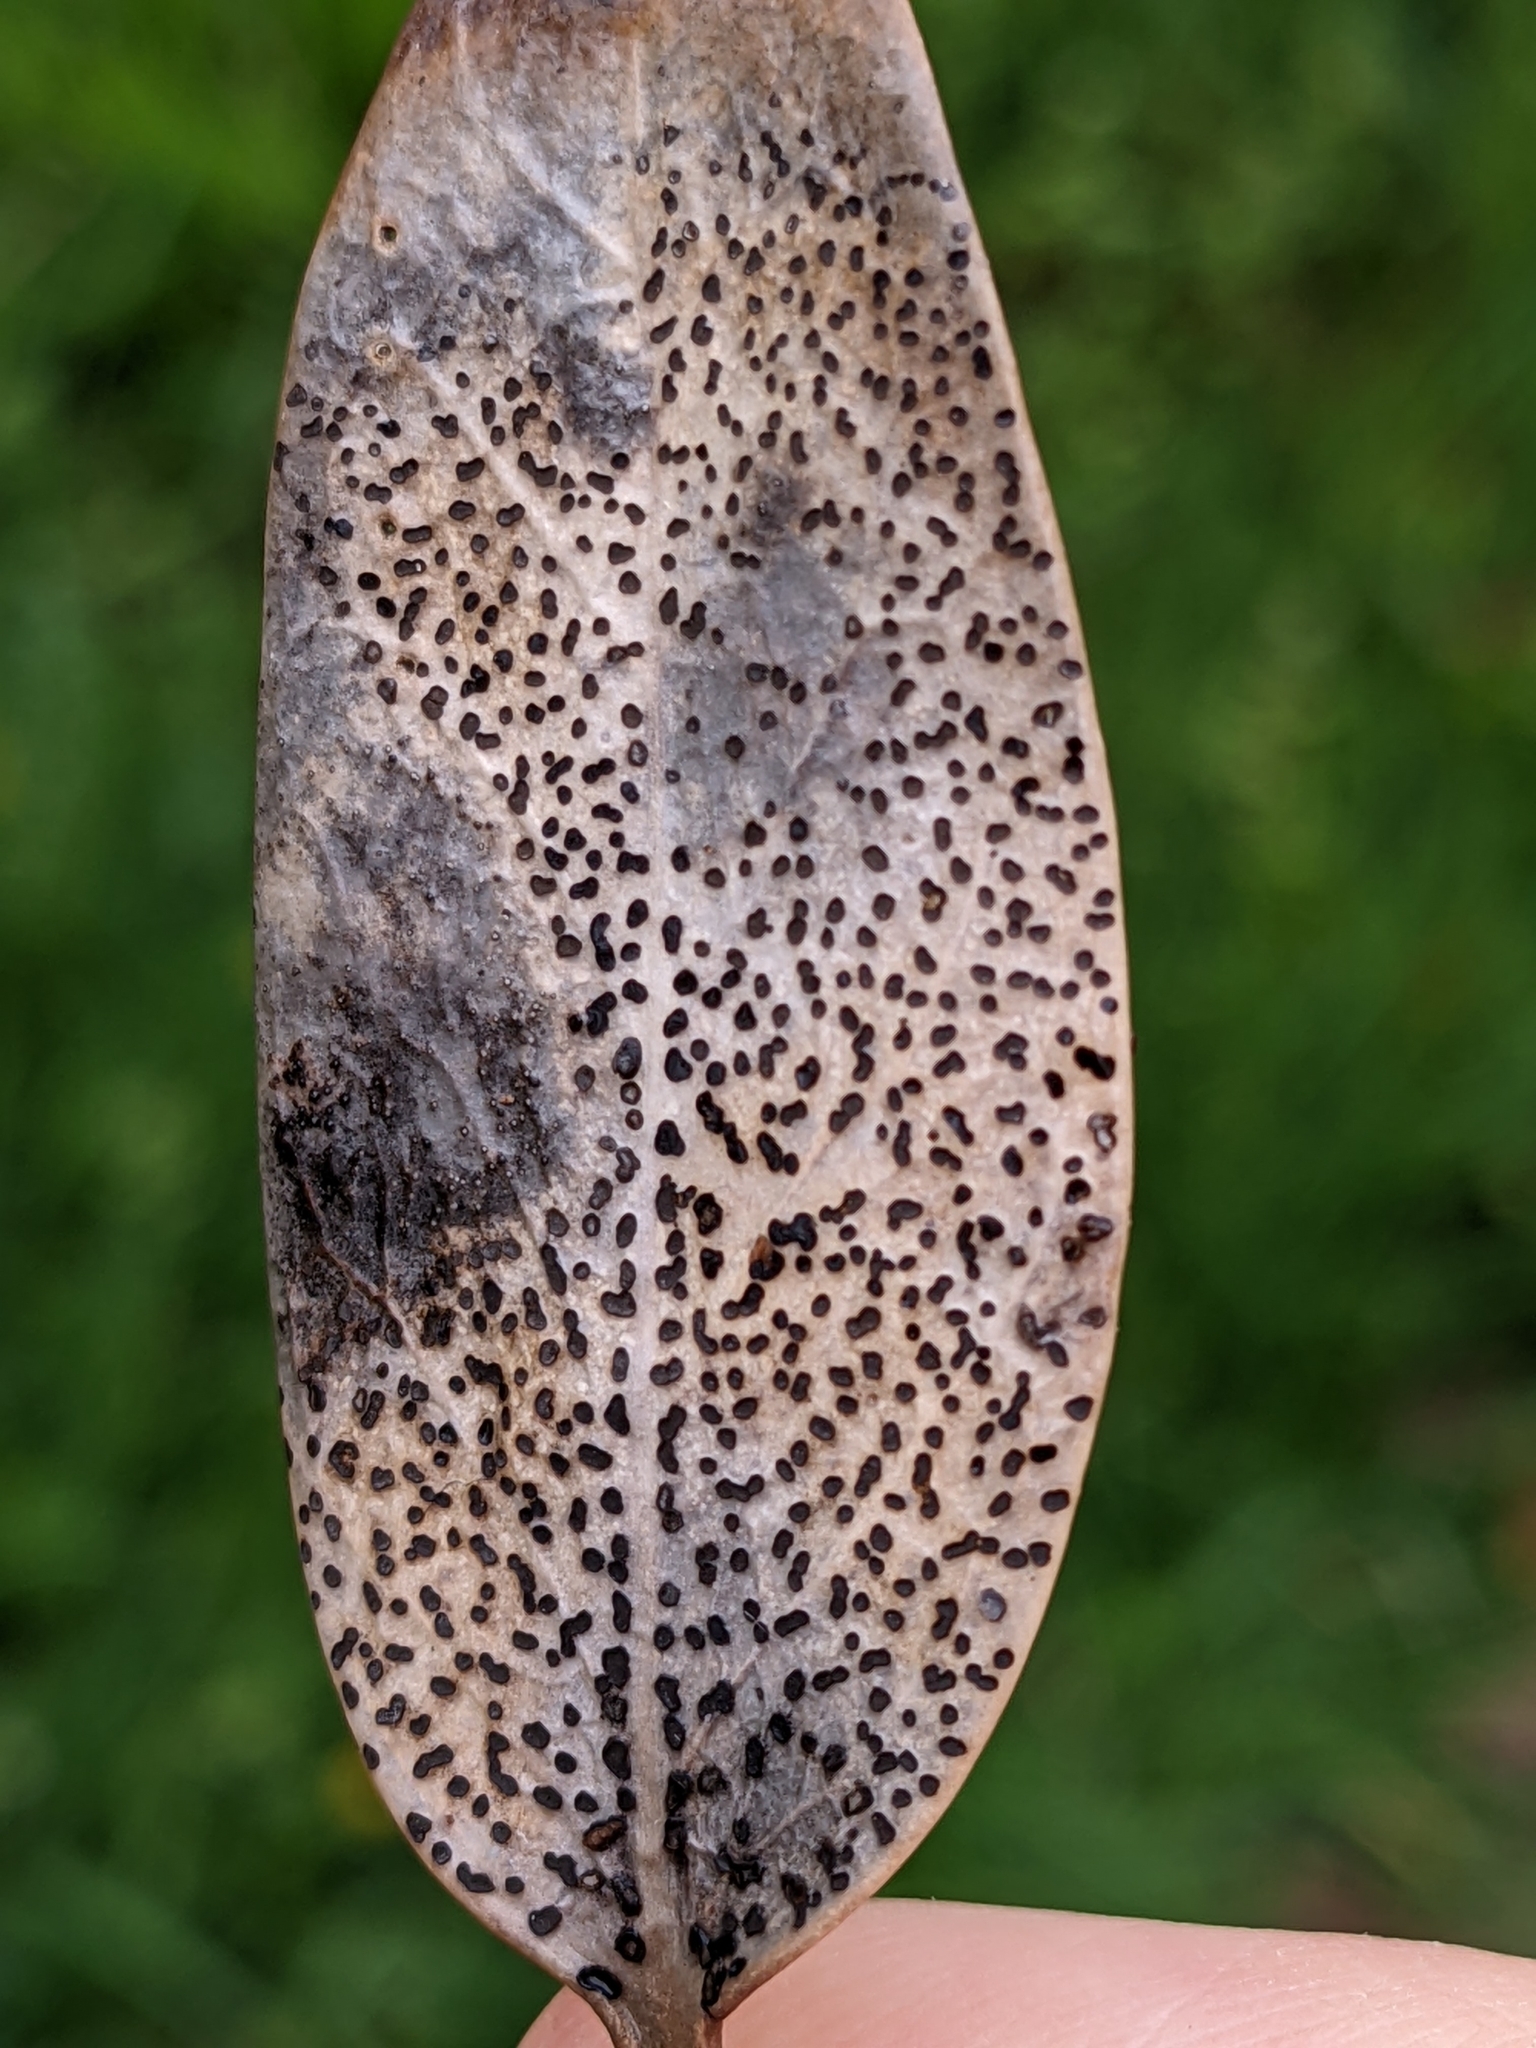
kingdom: Fungi
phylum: Ascomycota
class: Leotiomycetes
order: Helotiales
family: Cenangiaceae
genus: Trochila
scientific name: Trochila ilicina
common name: Holly speckle
